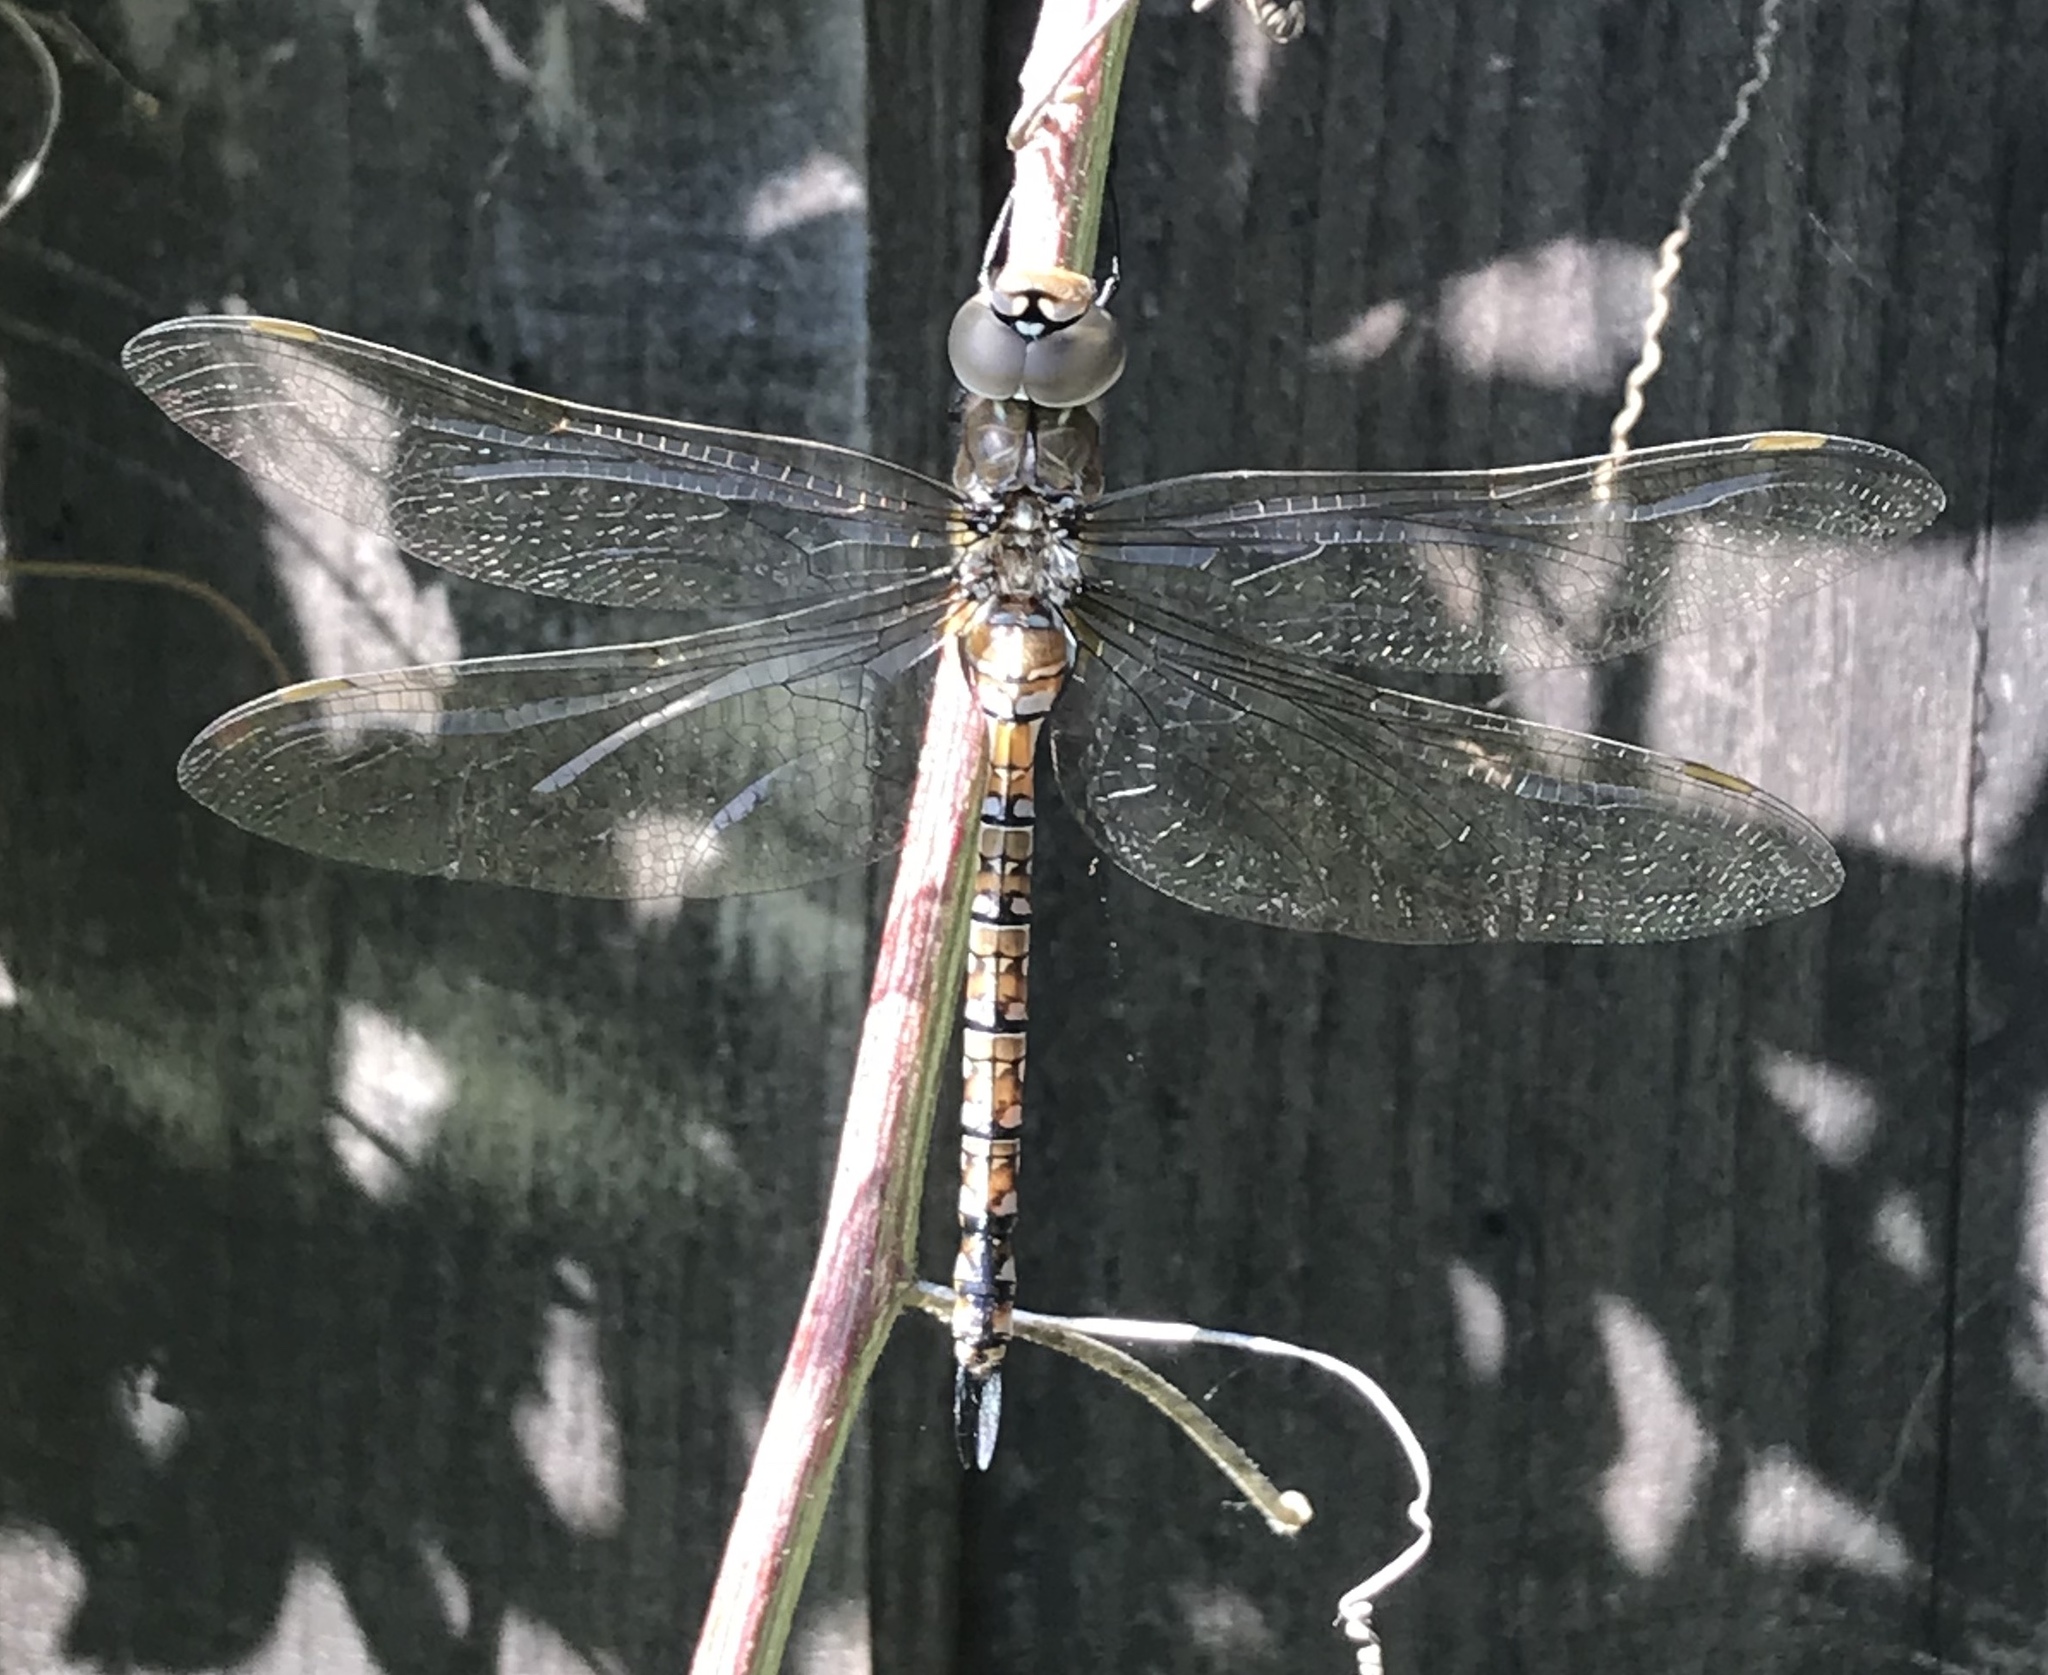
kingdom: Animalia
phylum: Arthropoda
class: Insecta
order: Odonata
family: Aeshnidae
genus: Rhionaeschna
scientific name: Rhionaeschna multicolor
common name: Blue-eyed darner
